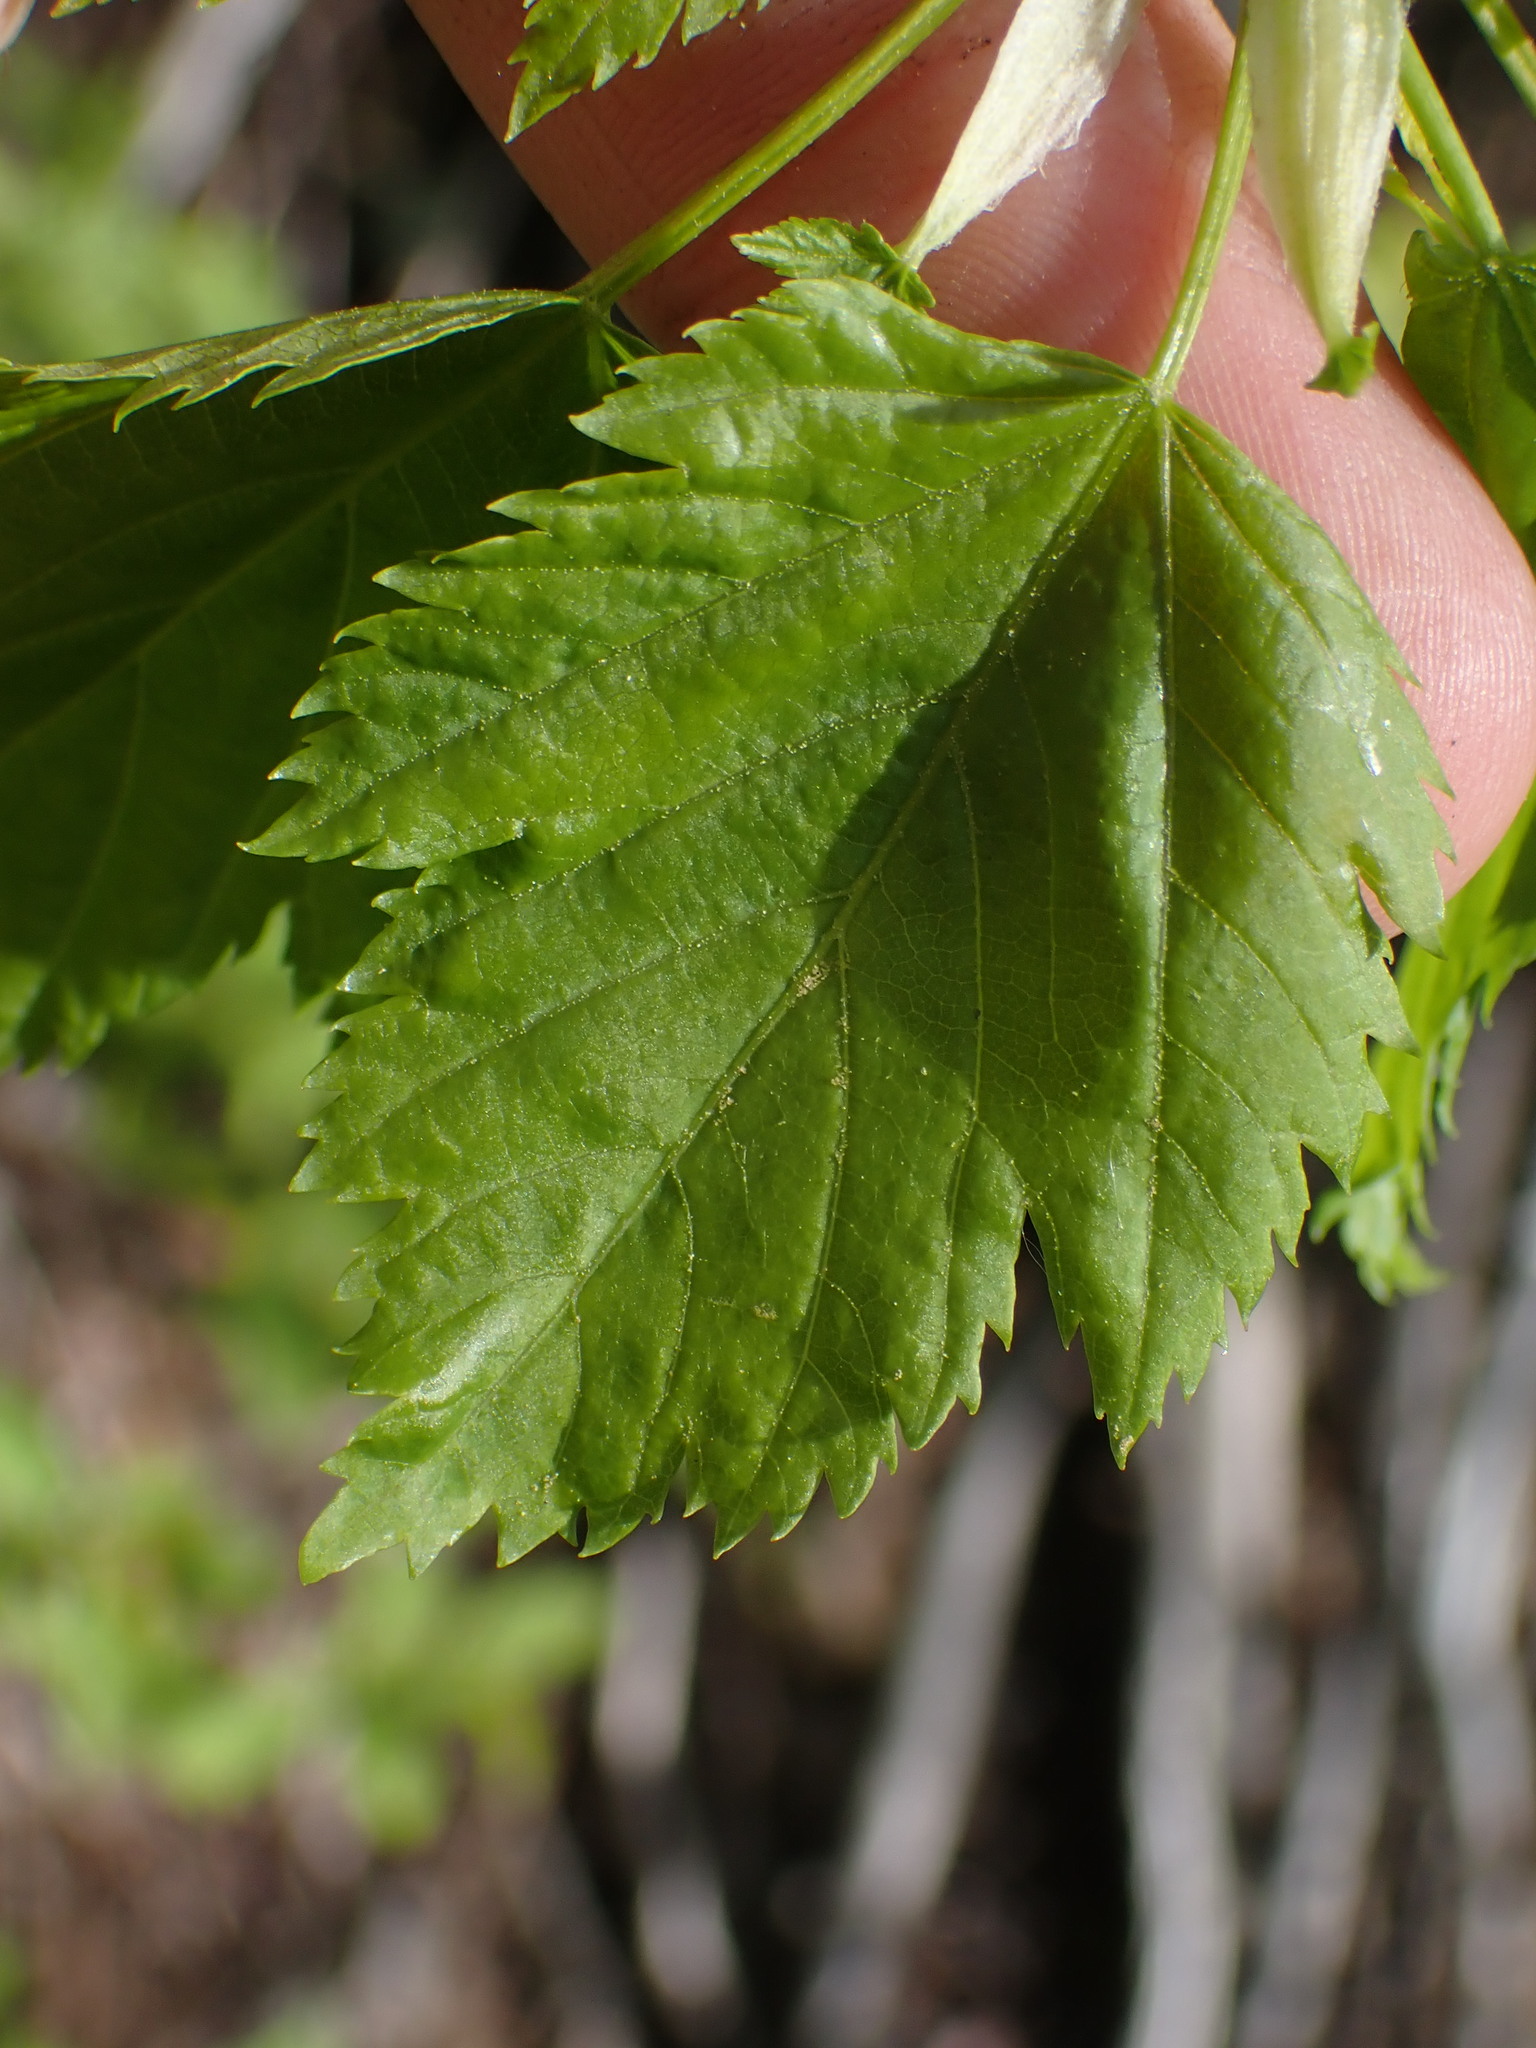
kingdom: Plantae
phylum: Tracheophyta
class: Magnoliopsida
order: Fagales
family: Betulaceae
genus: Betula
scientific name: Betula occidentalis
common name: River birch
